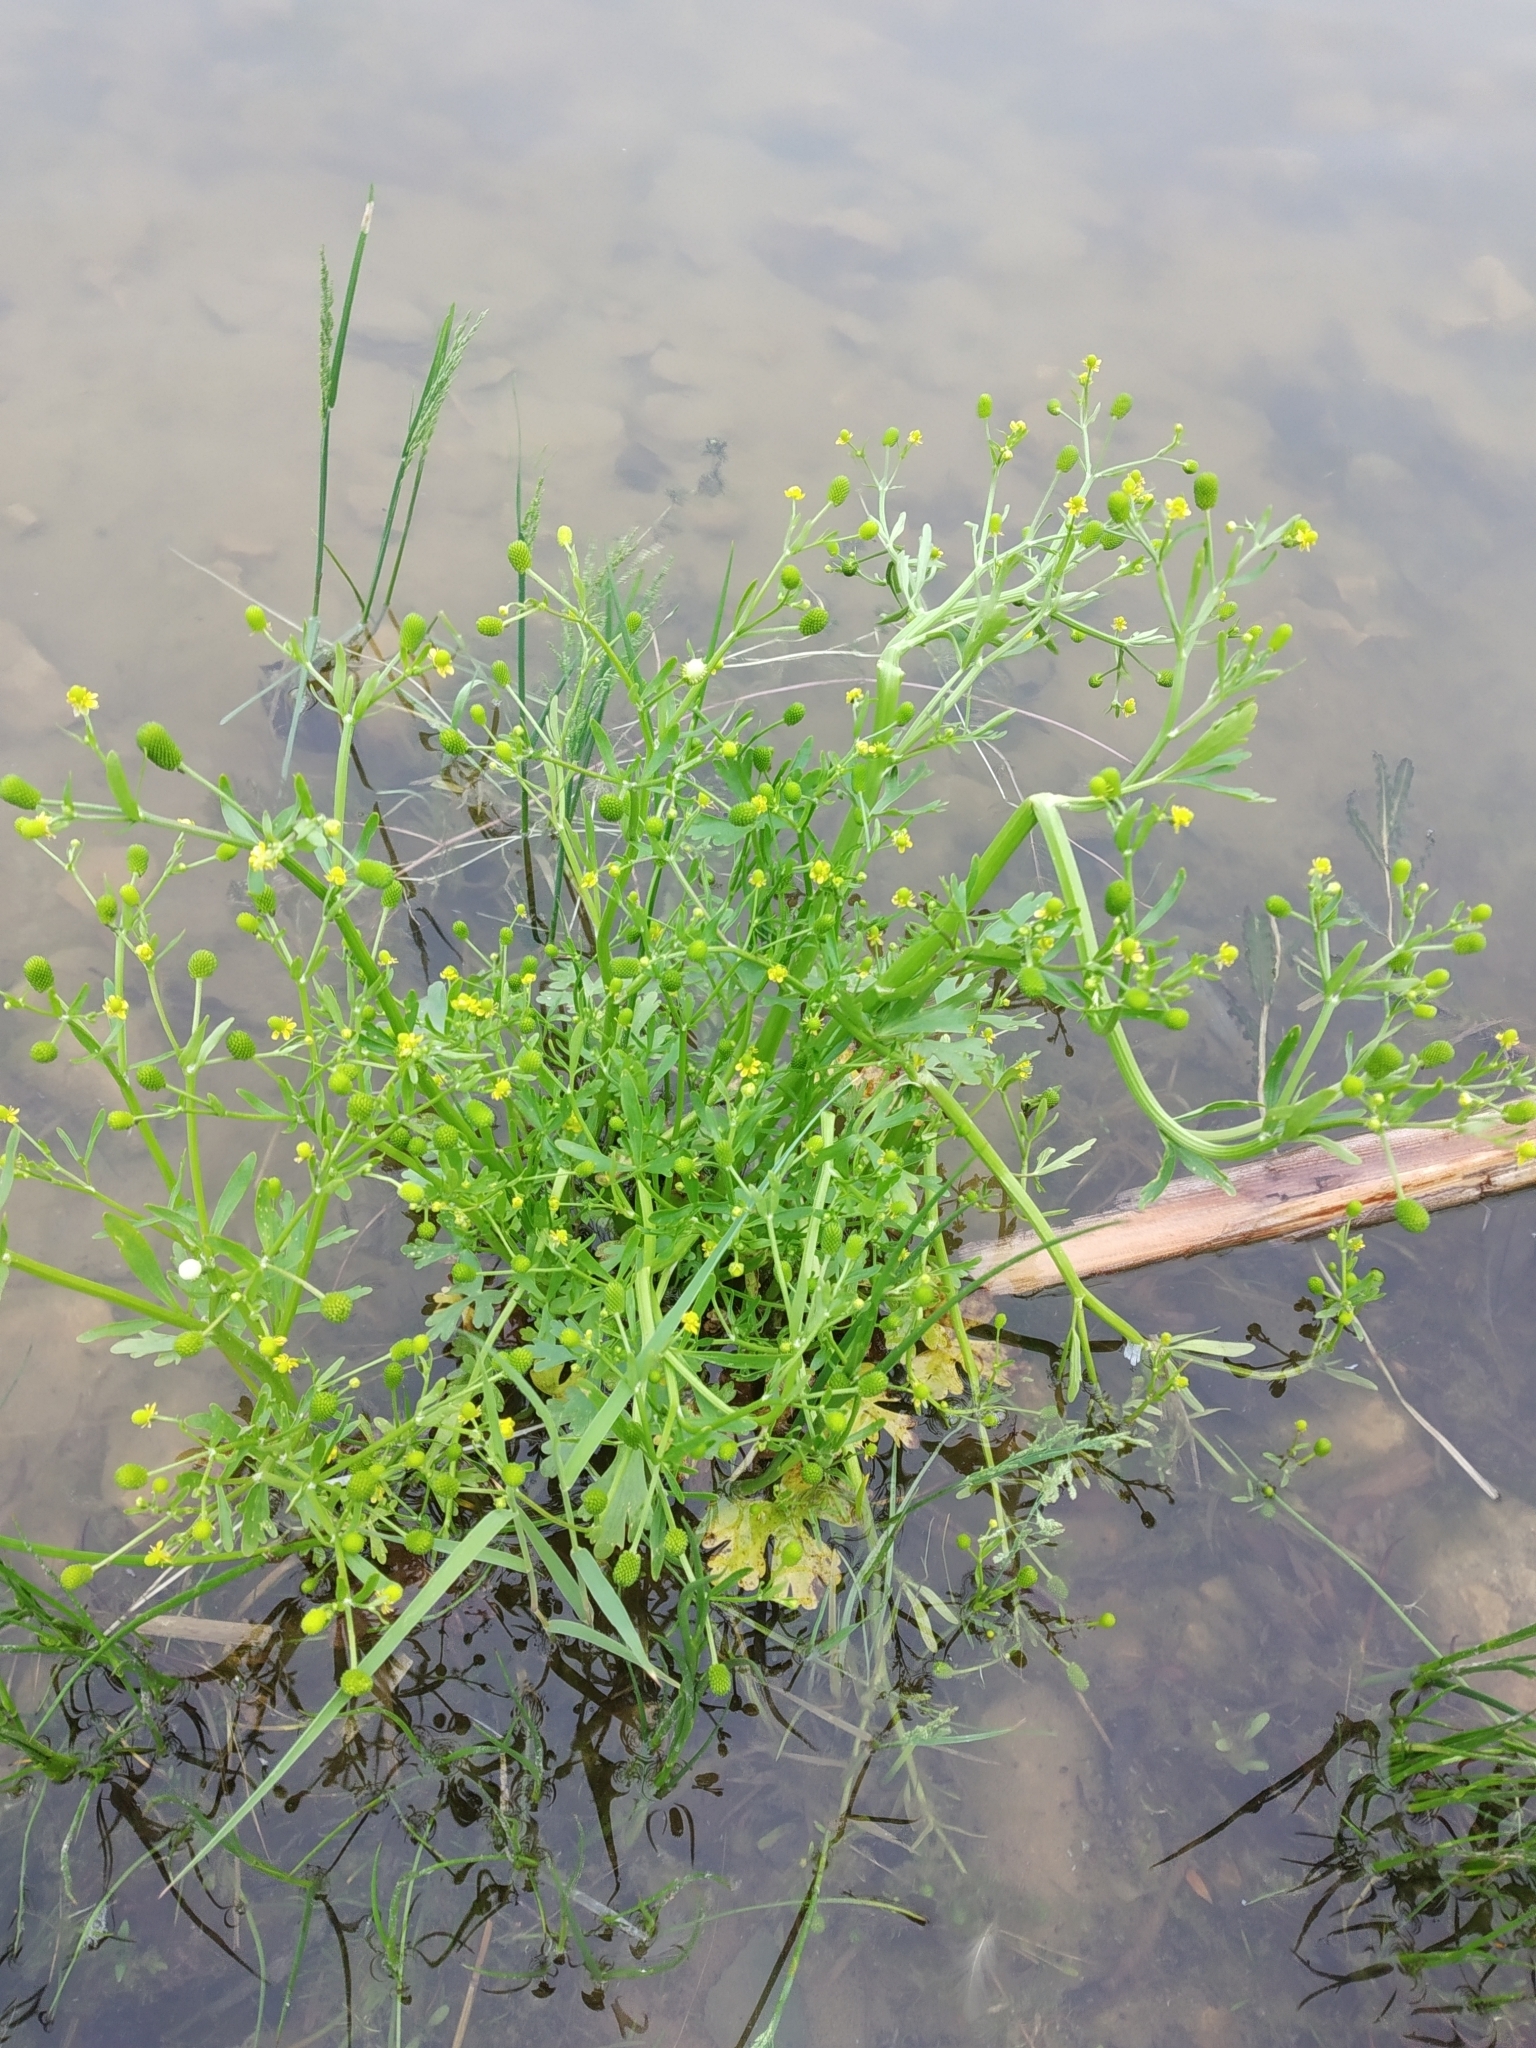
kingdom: Plantae
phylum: Tracheophyta
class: Magnoliopsida
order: Ranunculales
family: Ranunculaceae
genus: Ranunculus
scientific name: Ranunculus sceleratus
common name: Celery-leaved buttercup
